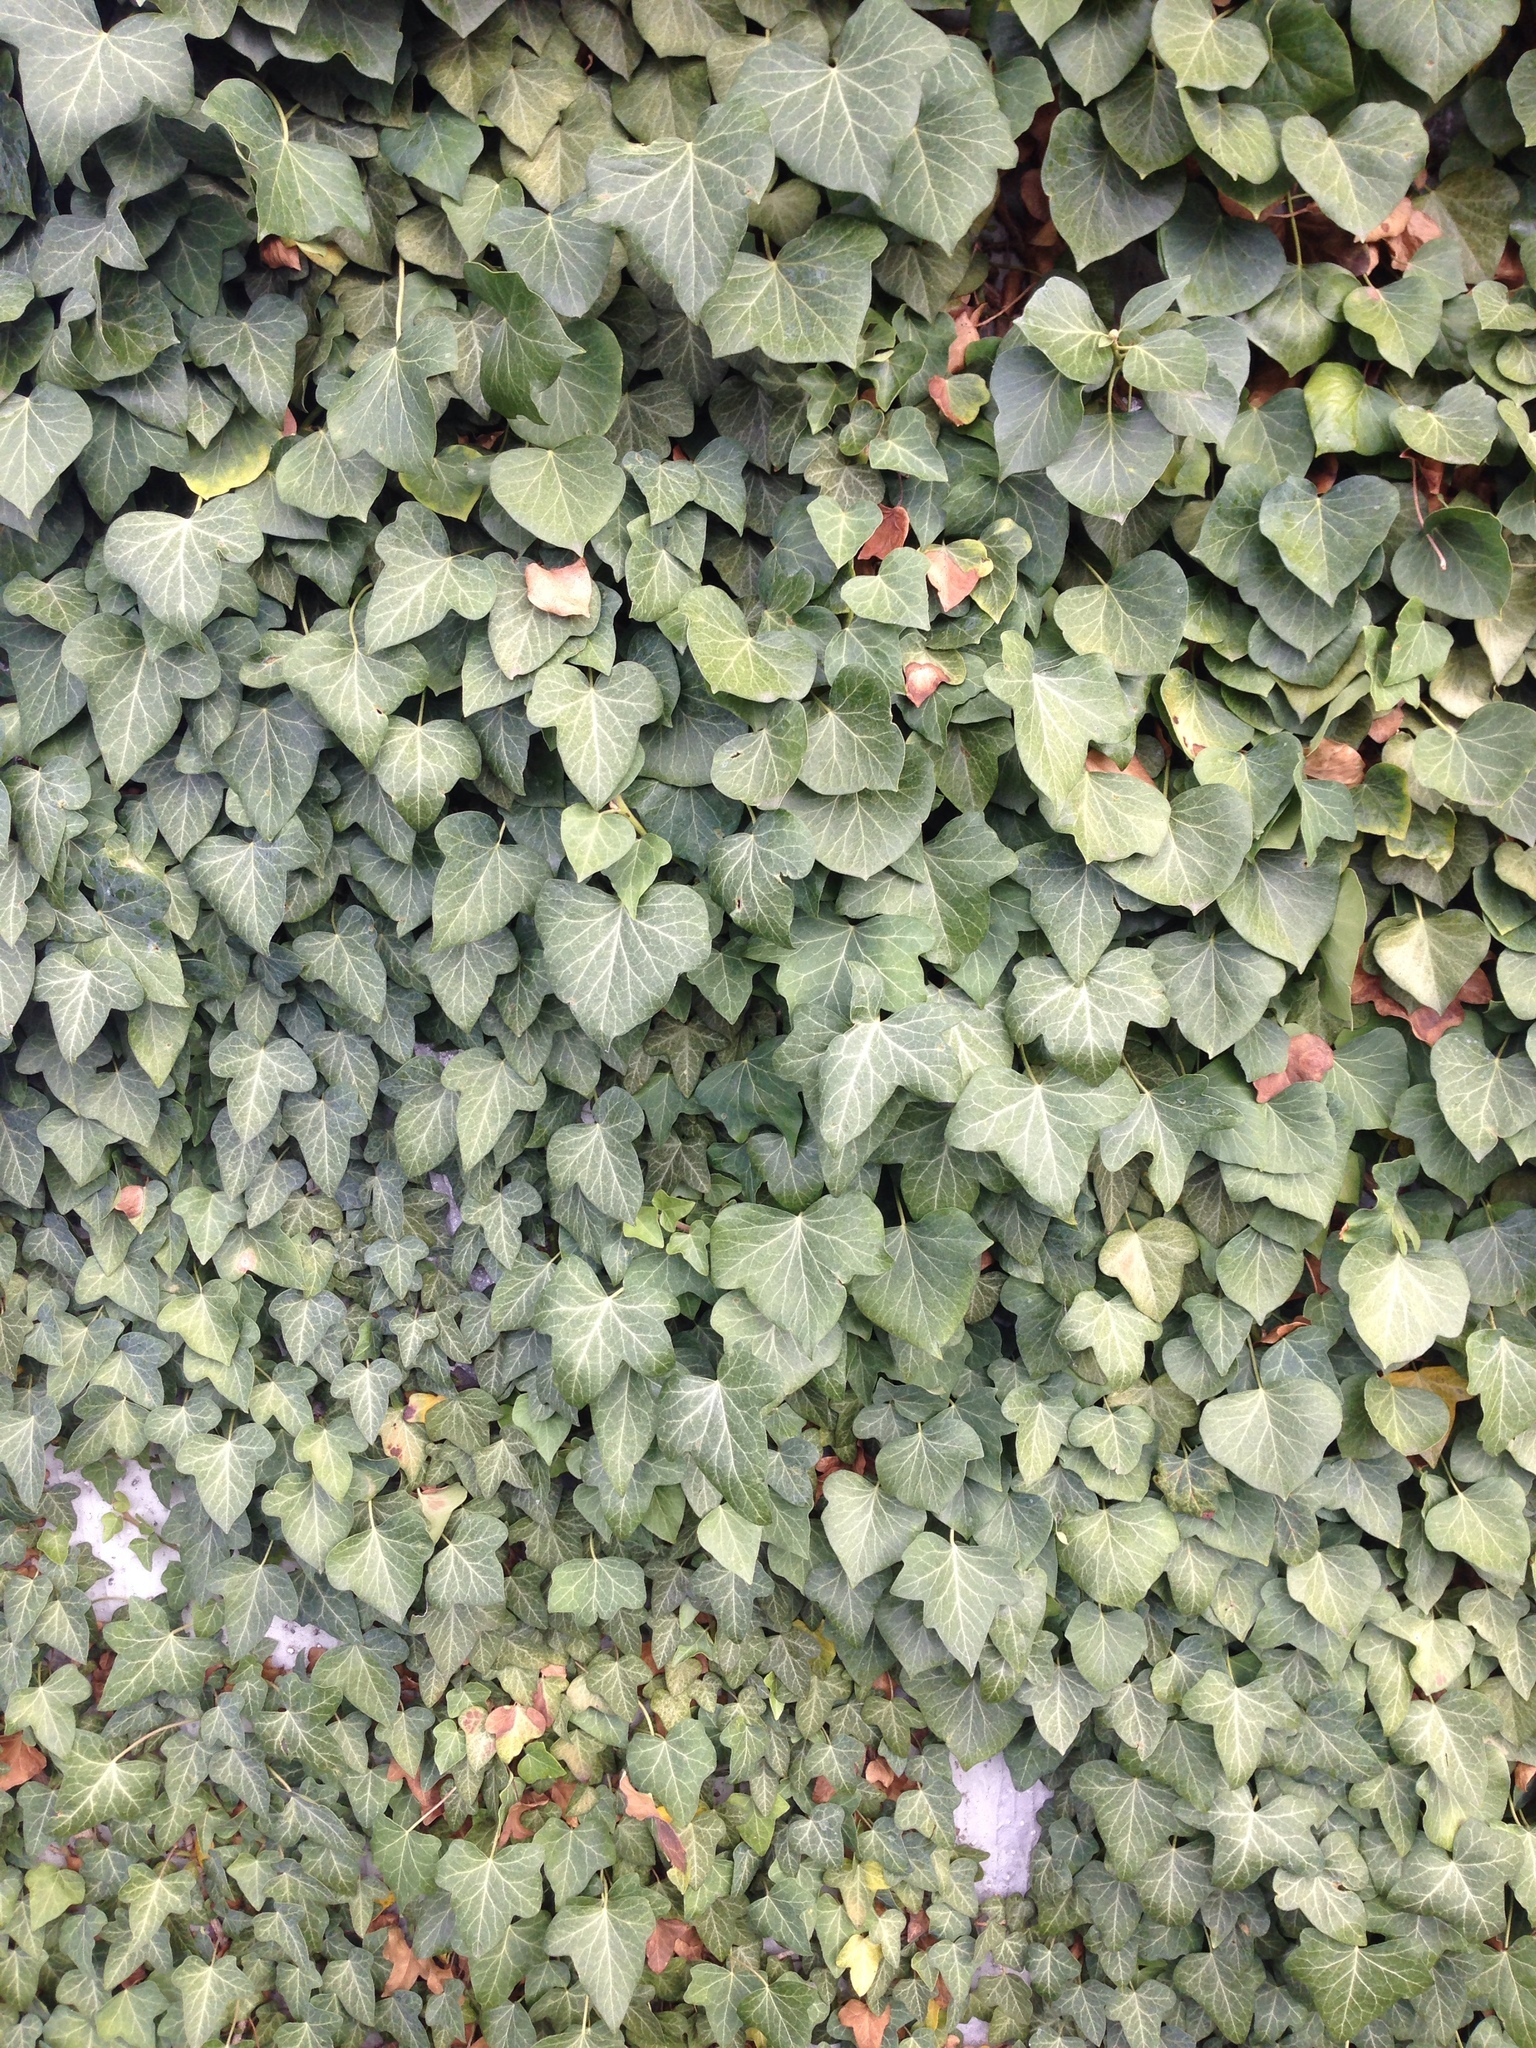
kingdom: Plantae
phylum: Tracheophyta
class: Magnoliopsida
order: Apiales
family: Araliaceae
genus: Hedera
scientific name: Hedera helix
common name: Ivy
